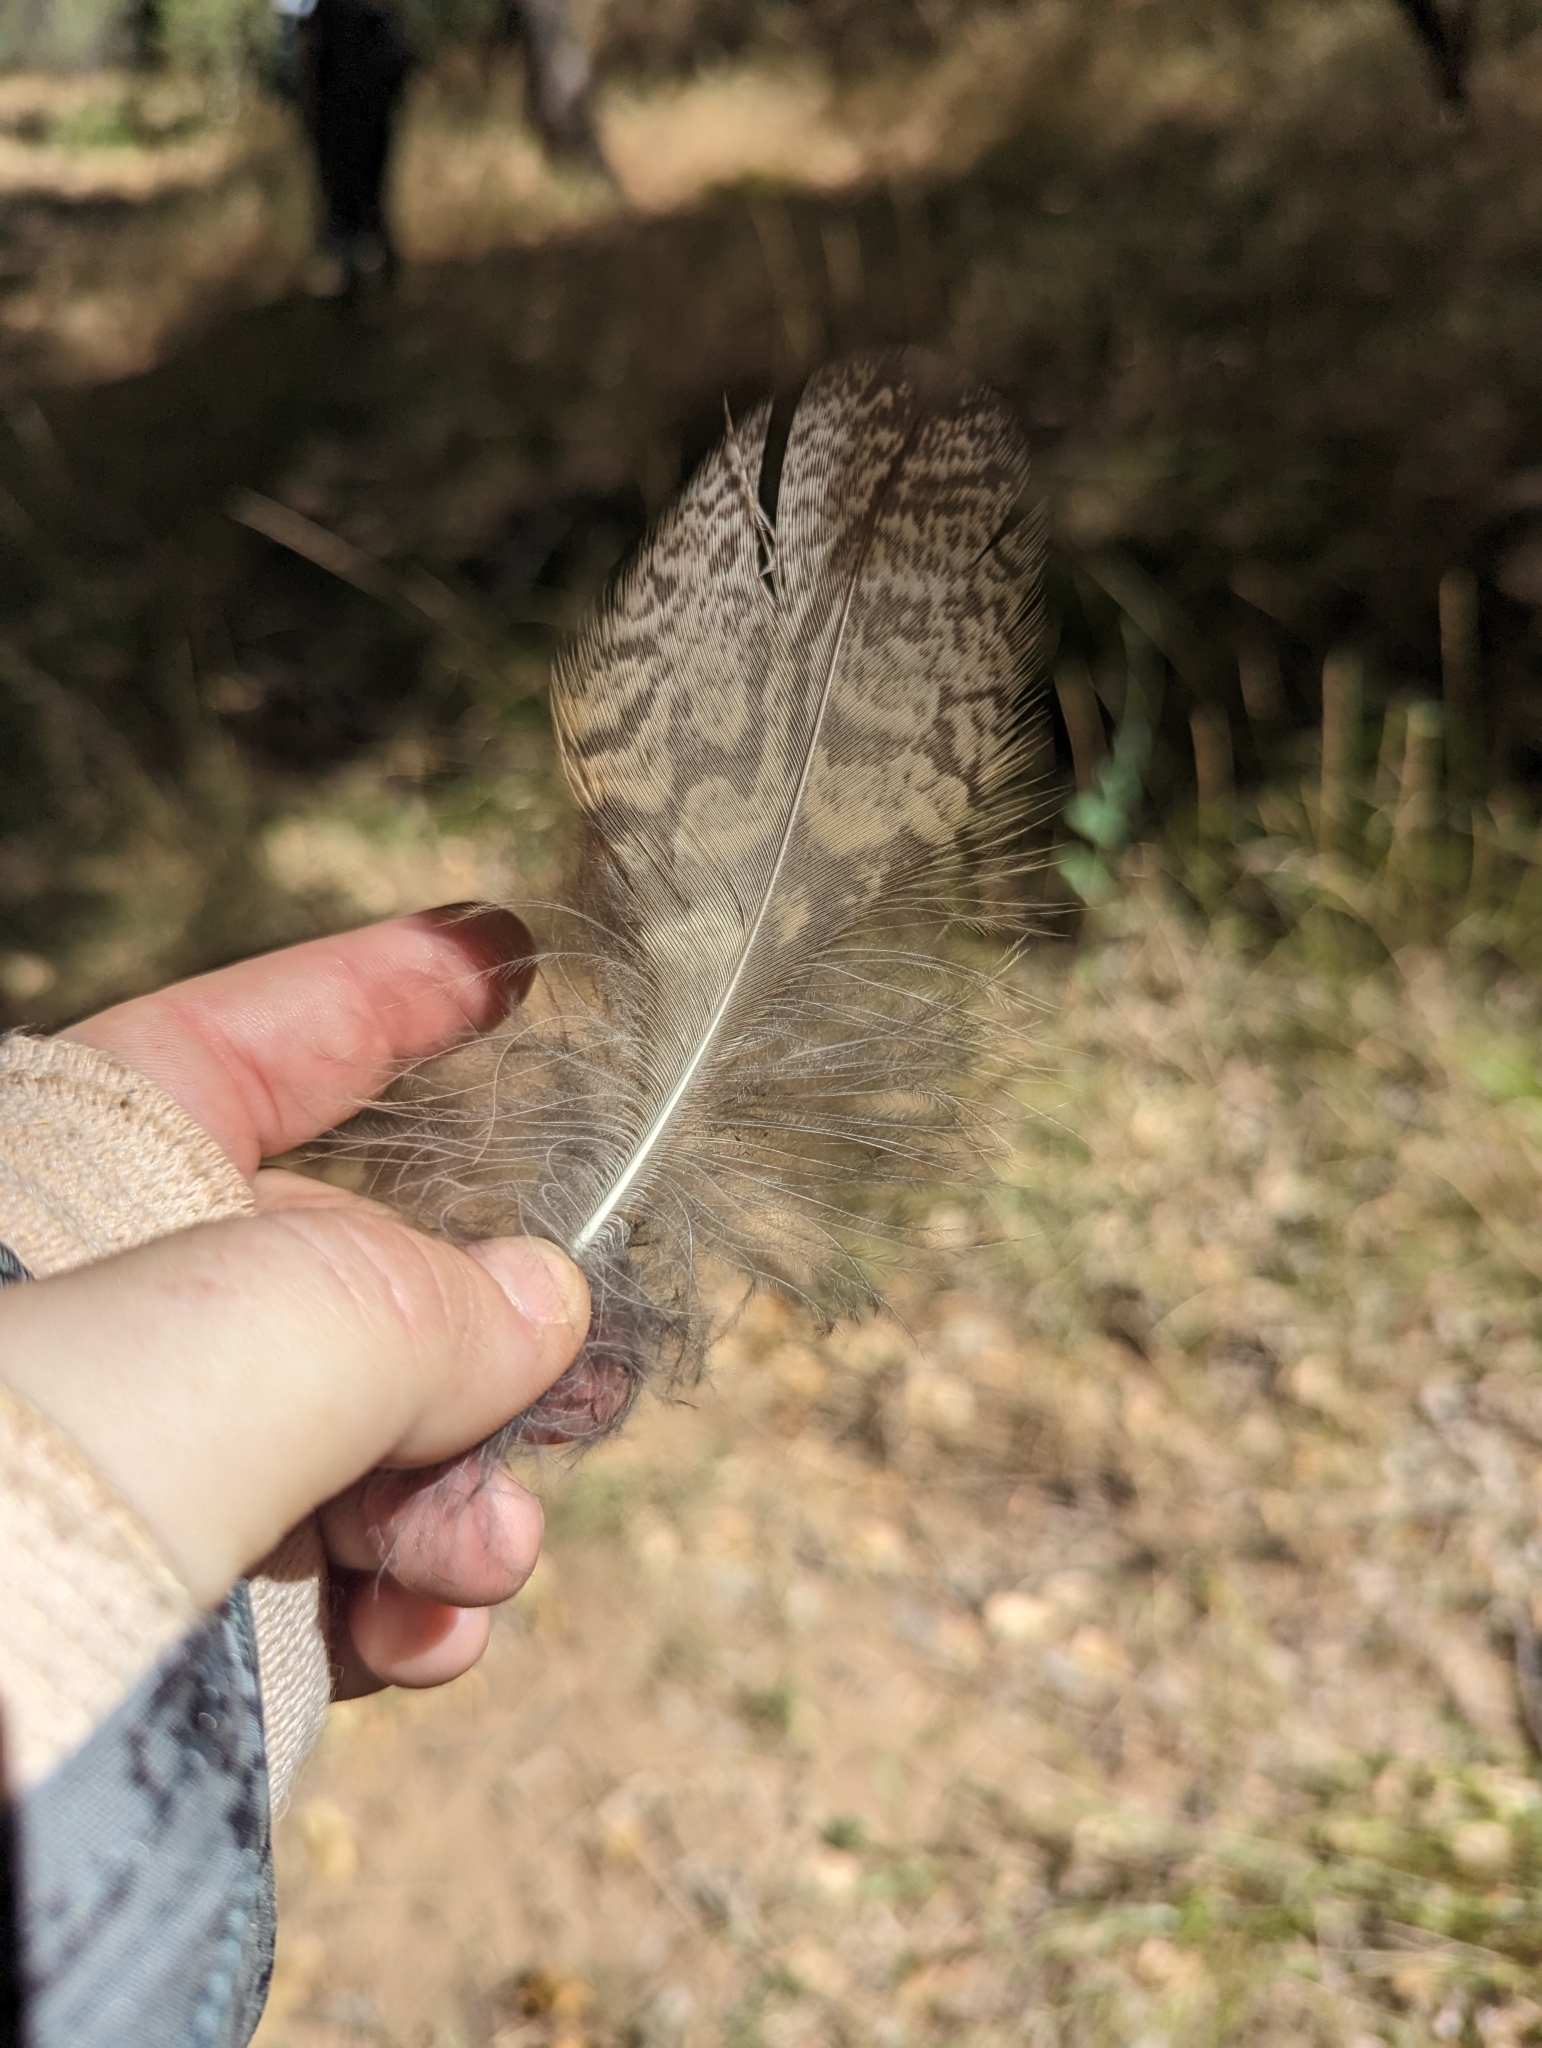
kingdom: Animalia
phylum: Chordata
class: Aves
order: Strigiformes
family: Strigidae
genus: Bubo
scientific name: Bubo virginianus
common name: Great horned owl
